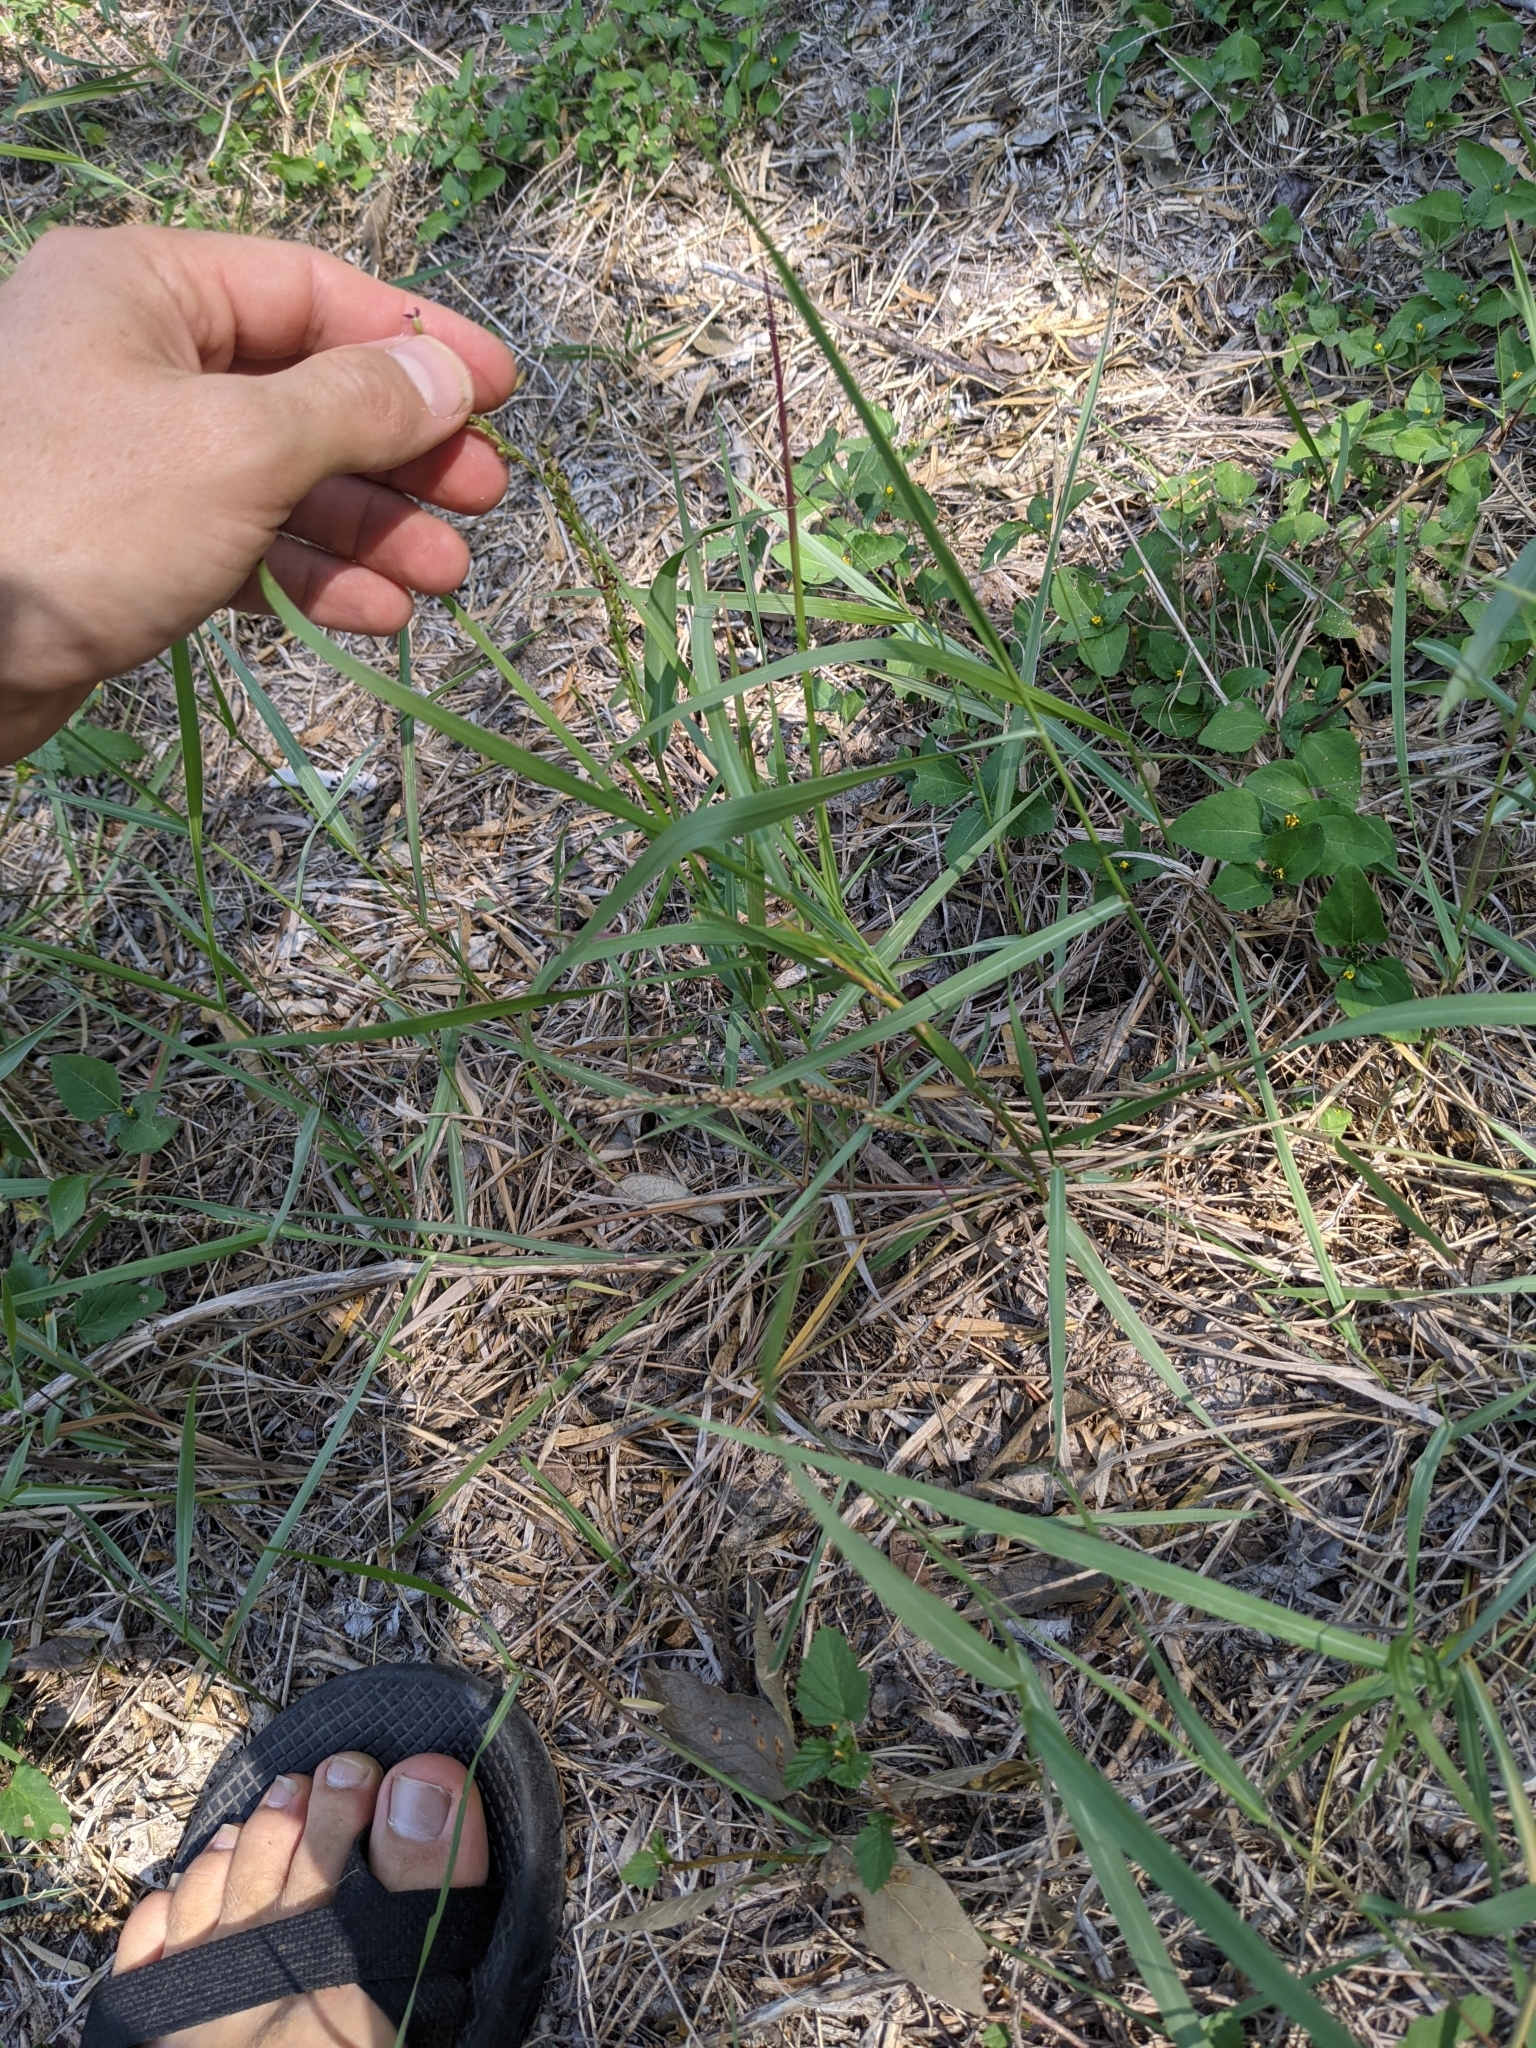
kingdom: Plantae
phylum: Tracheophyta
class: Liliopsida
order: Poales
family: Poaceae
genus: Hopia
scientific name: Hopia obtusa
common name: Vine-mesquite
